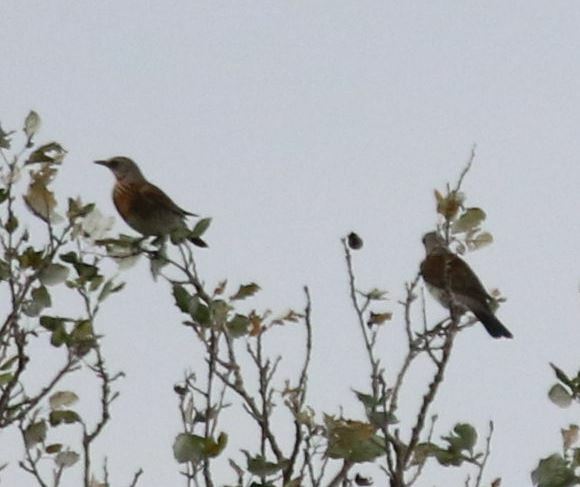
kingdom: Animalia
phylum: Chordata
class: Aves
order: Passeriformes
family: Turdidae
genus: Turdus
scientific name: Turdus pilaris
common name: Fieldfare
